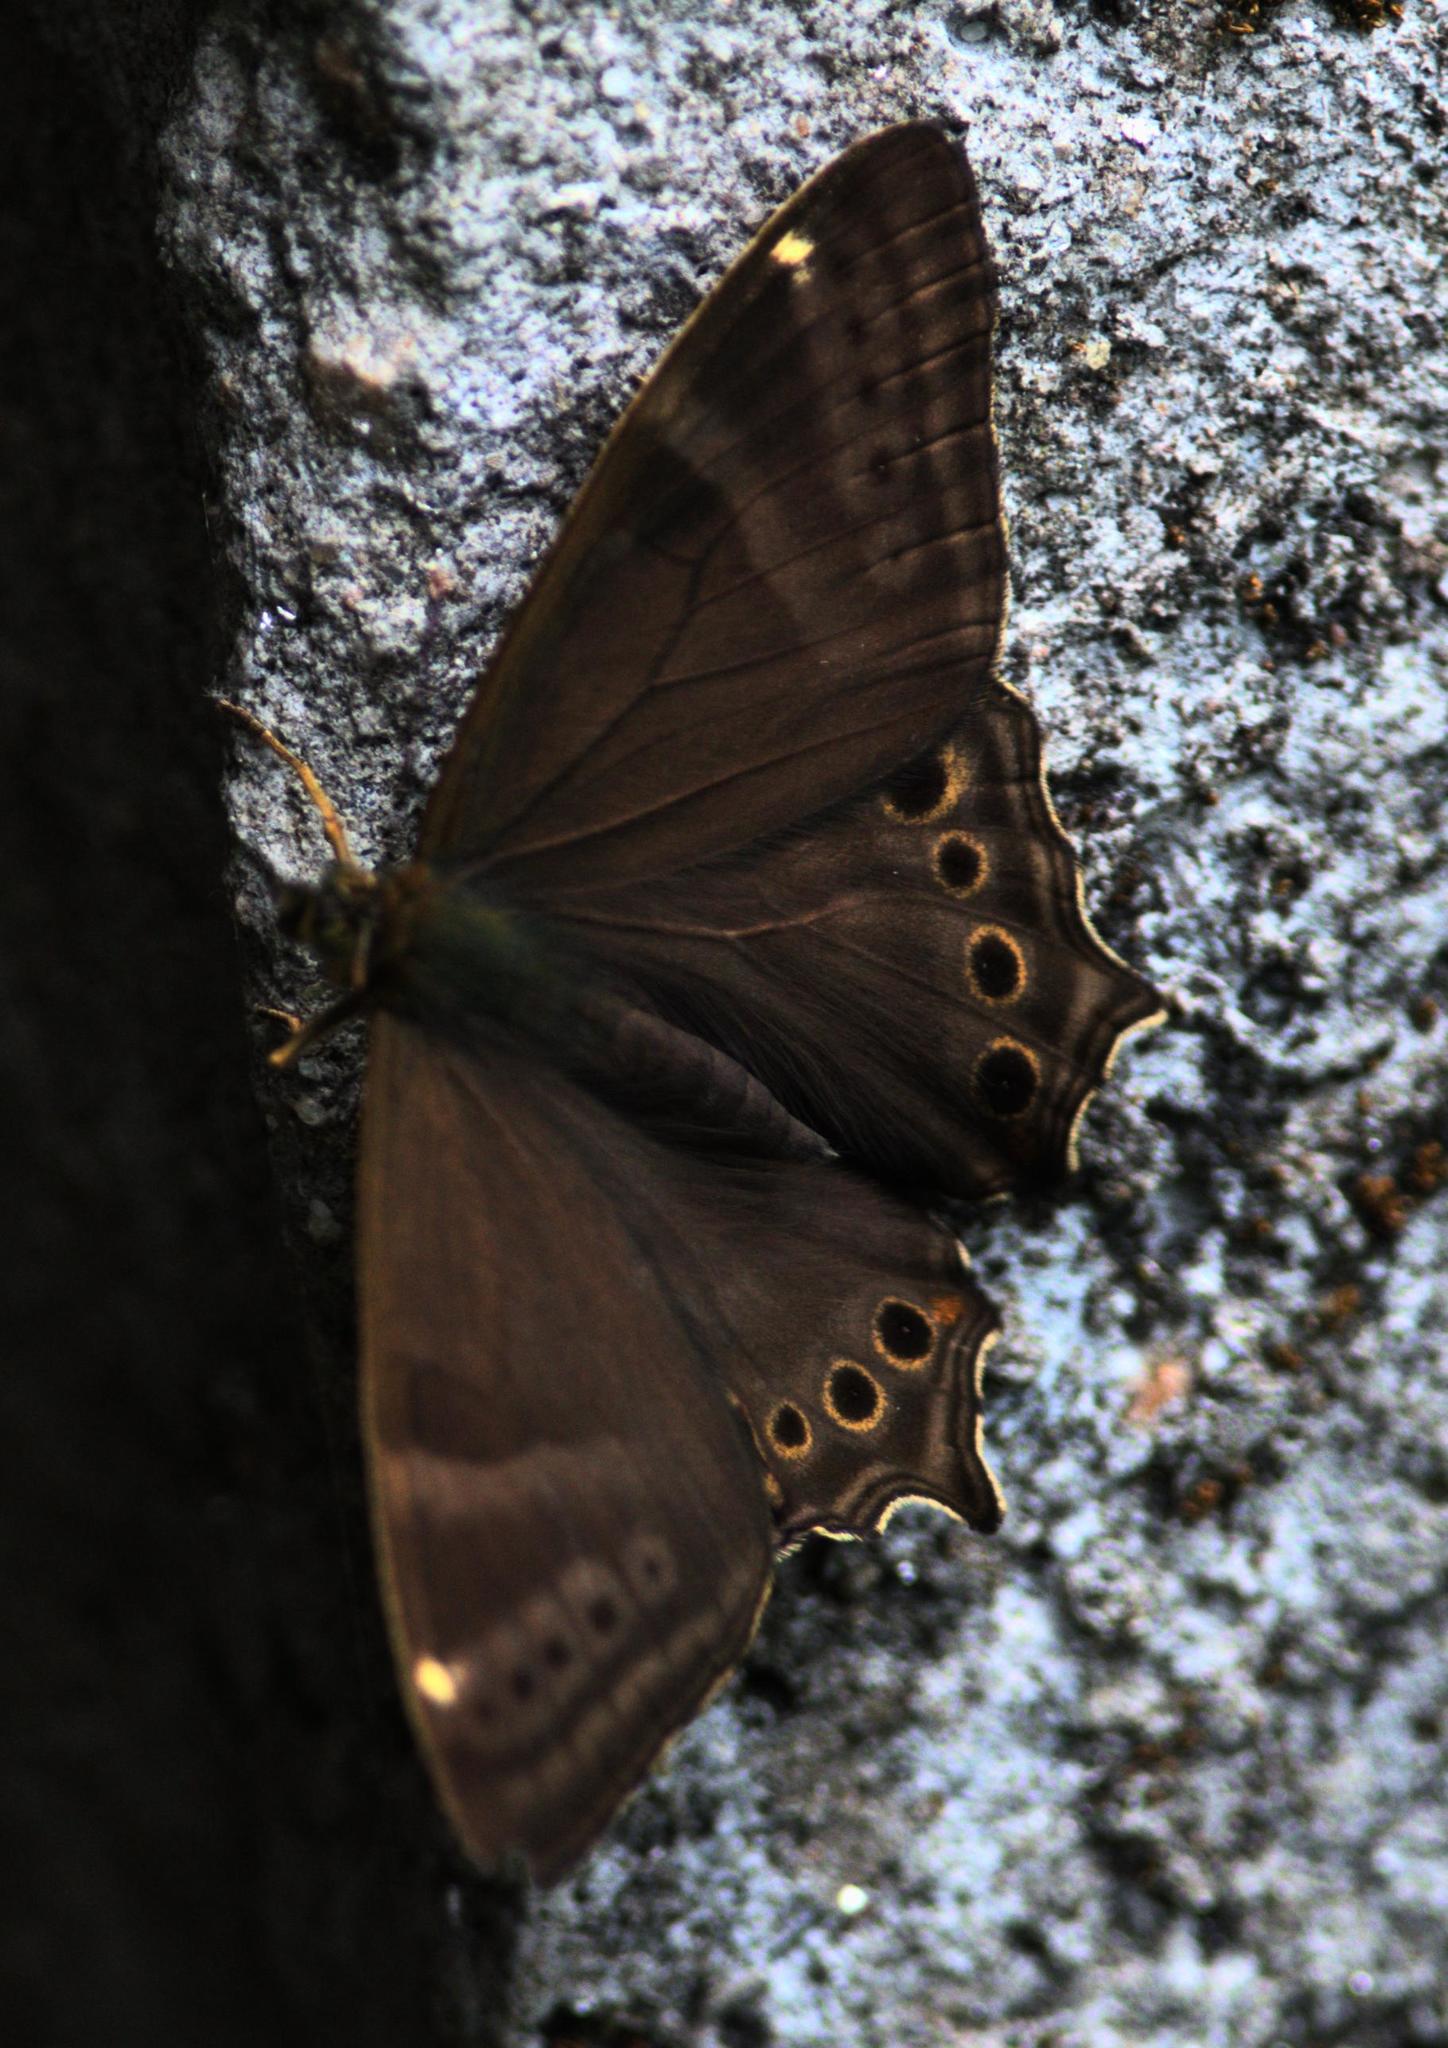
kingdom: Animalia
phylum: Arthropoda
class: Insecta
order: Lepidoptera
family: Nymphalidae
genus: Lethe
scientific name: Lethe baladeva
